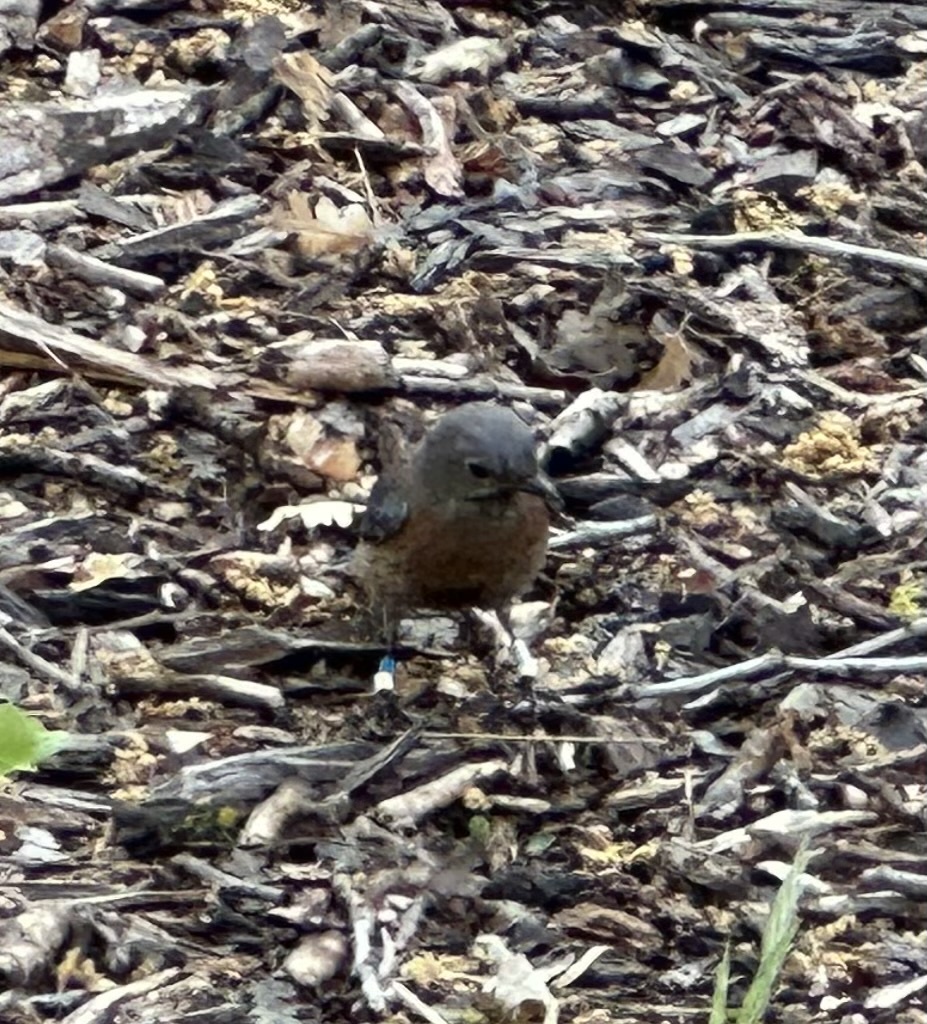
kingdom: Animalia
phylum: Chordata
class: Aves
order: Passeriformes
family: Turdidae
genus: Sialia
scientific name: Sialia mexicana
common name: Western bluebird
